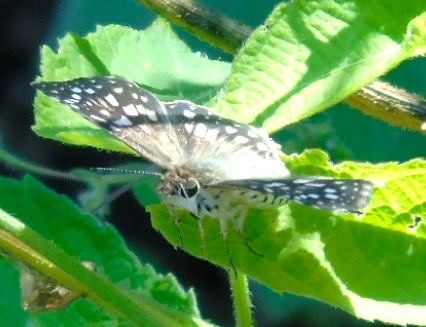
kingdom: Animalia
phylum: Arthropoda
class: Insecta
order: Lepidoptera
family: Hesperiidae
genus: Burnsius
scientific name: Burnsius
